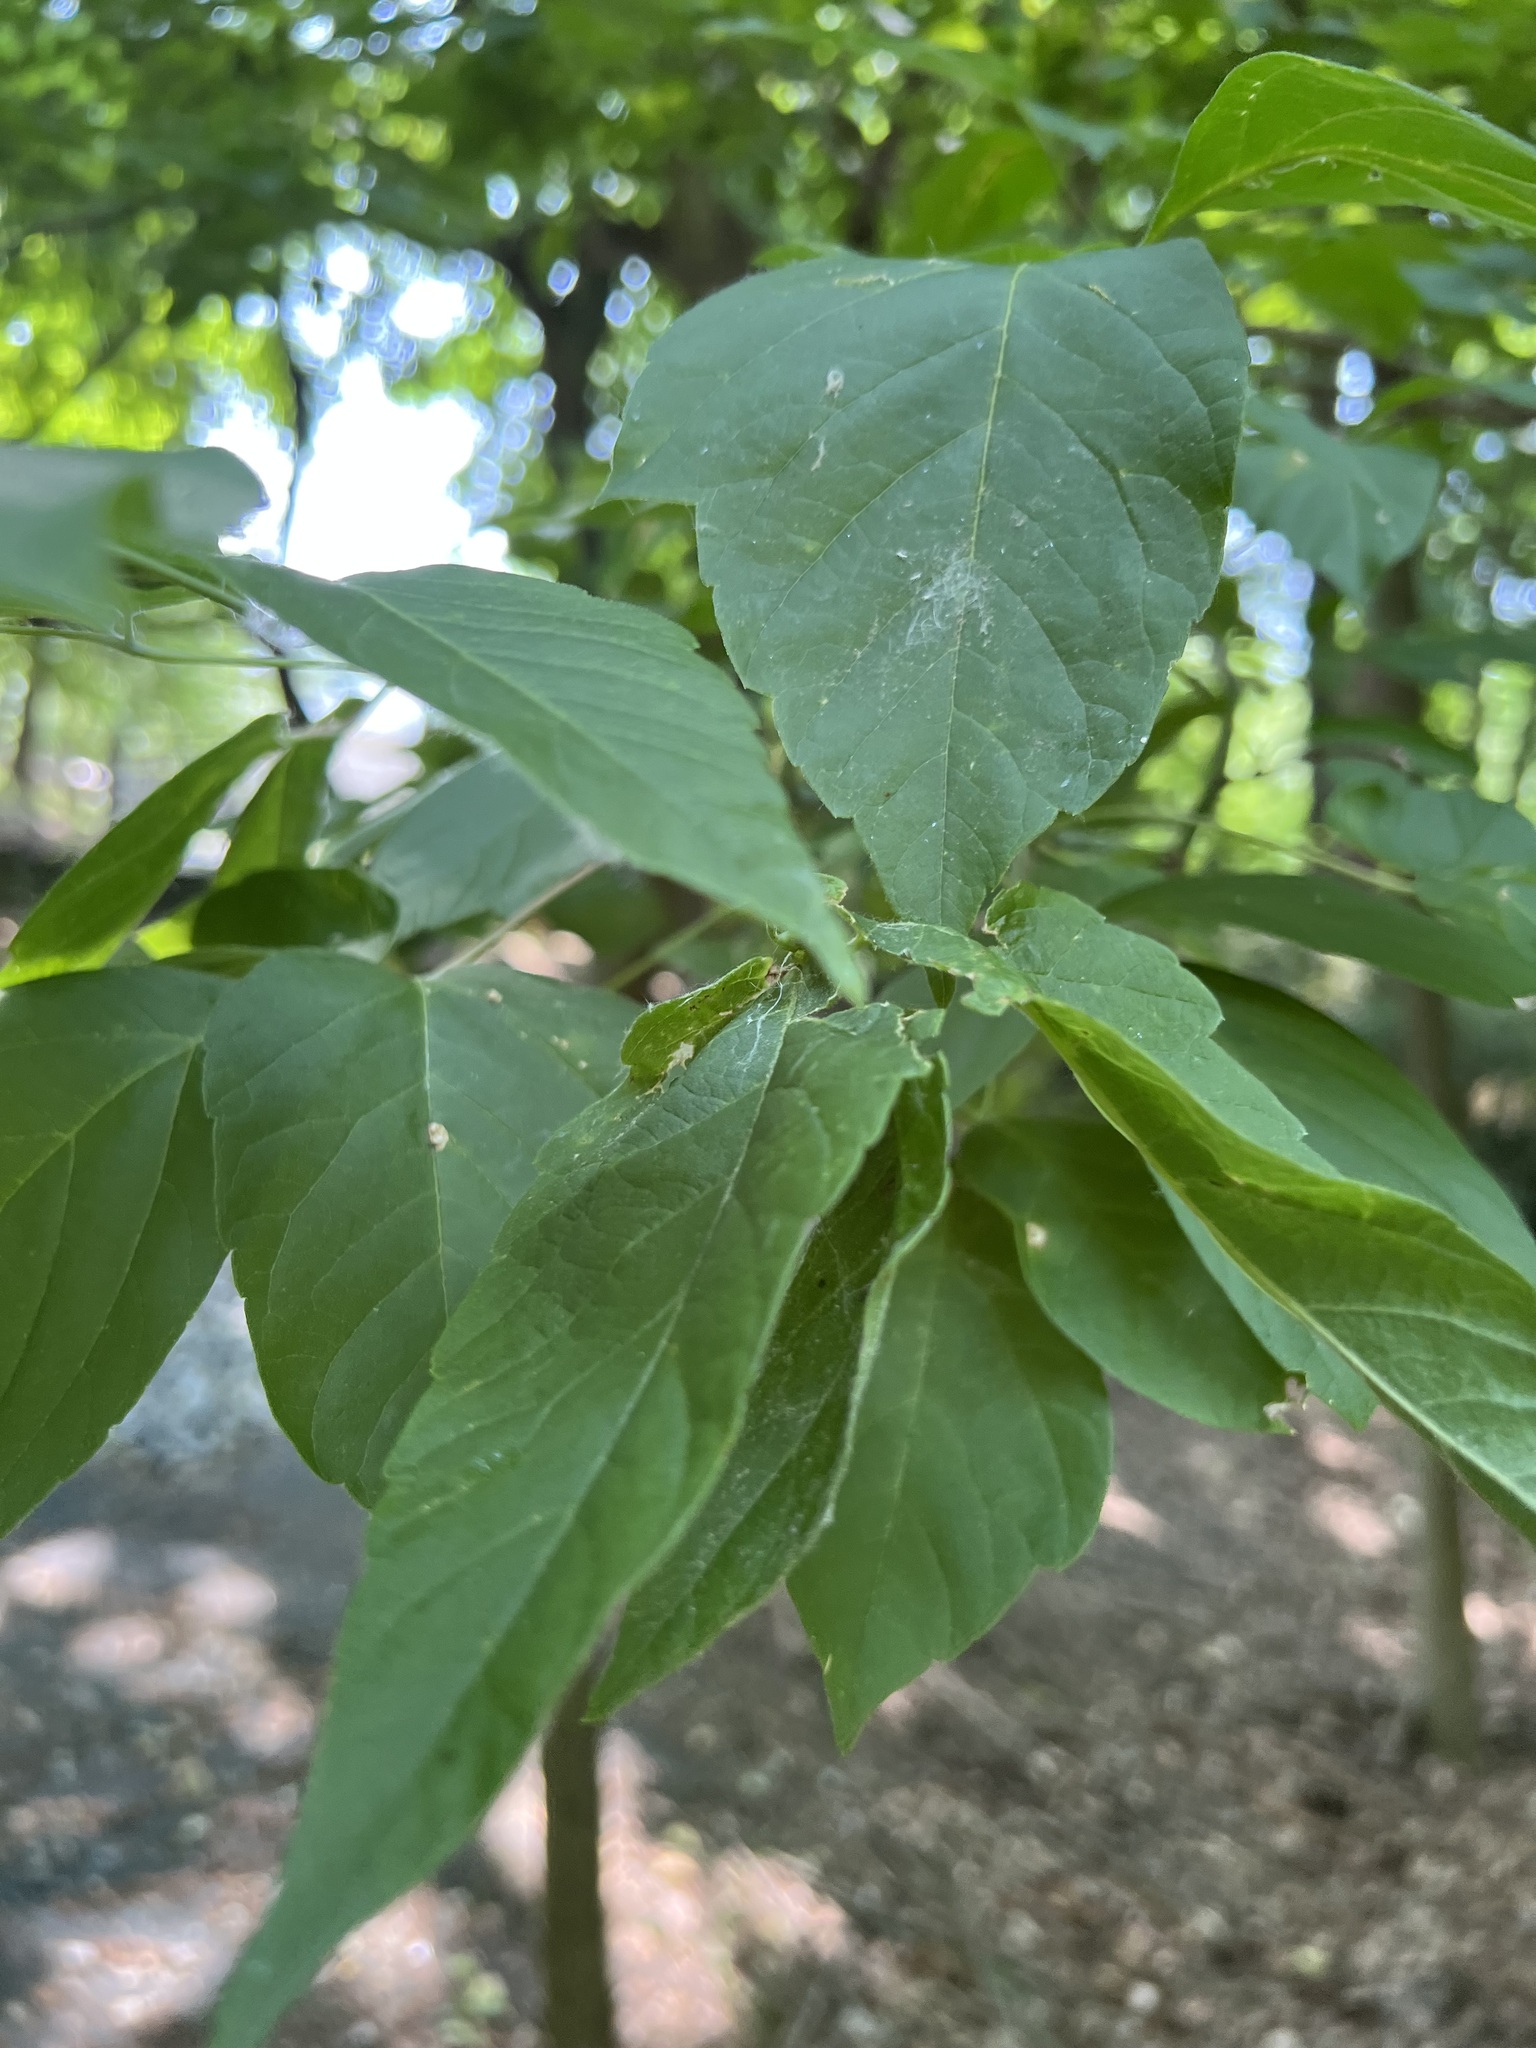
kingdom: Plantae
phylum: Tracheophyta
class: Magnoliopsida
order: Sapindales
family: Sapindaceae
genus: Acer
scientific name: Acer negundo
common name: Ashleaf maple
